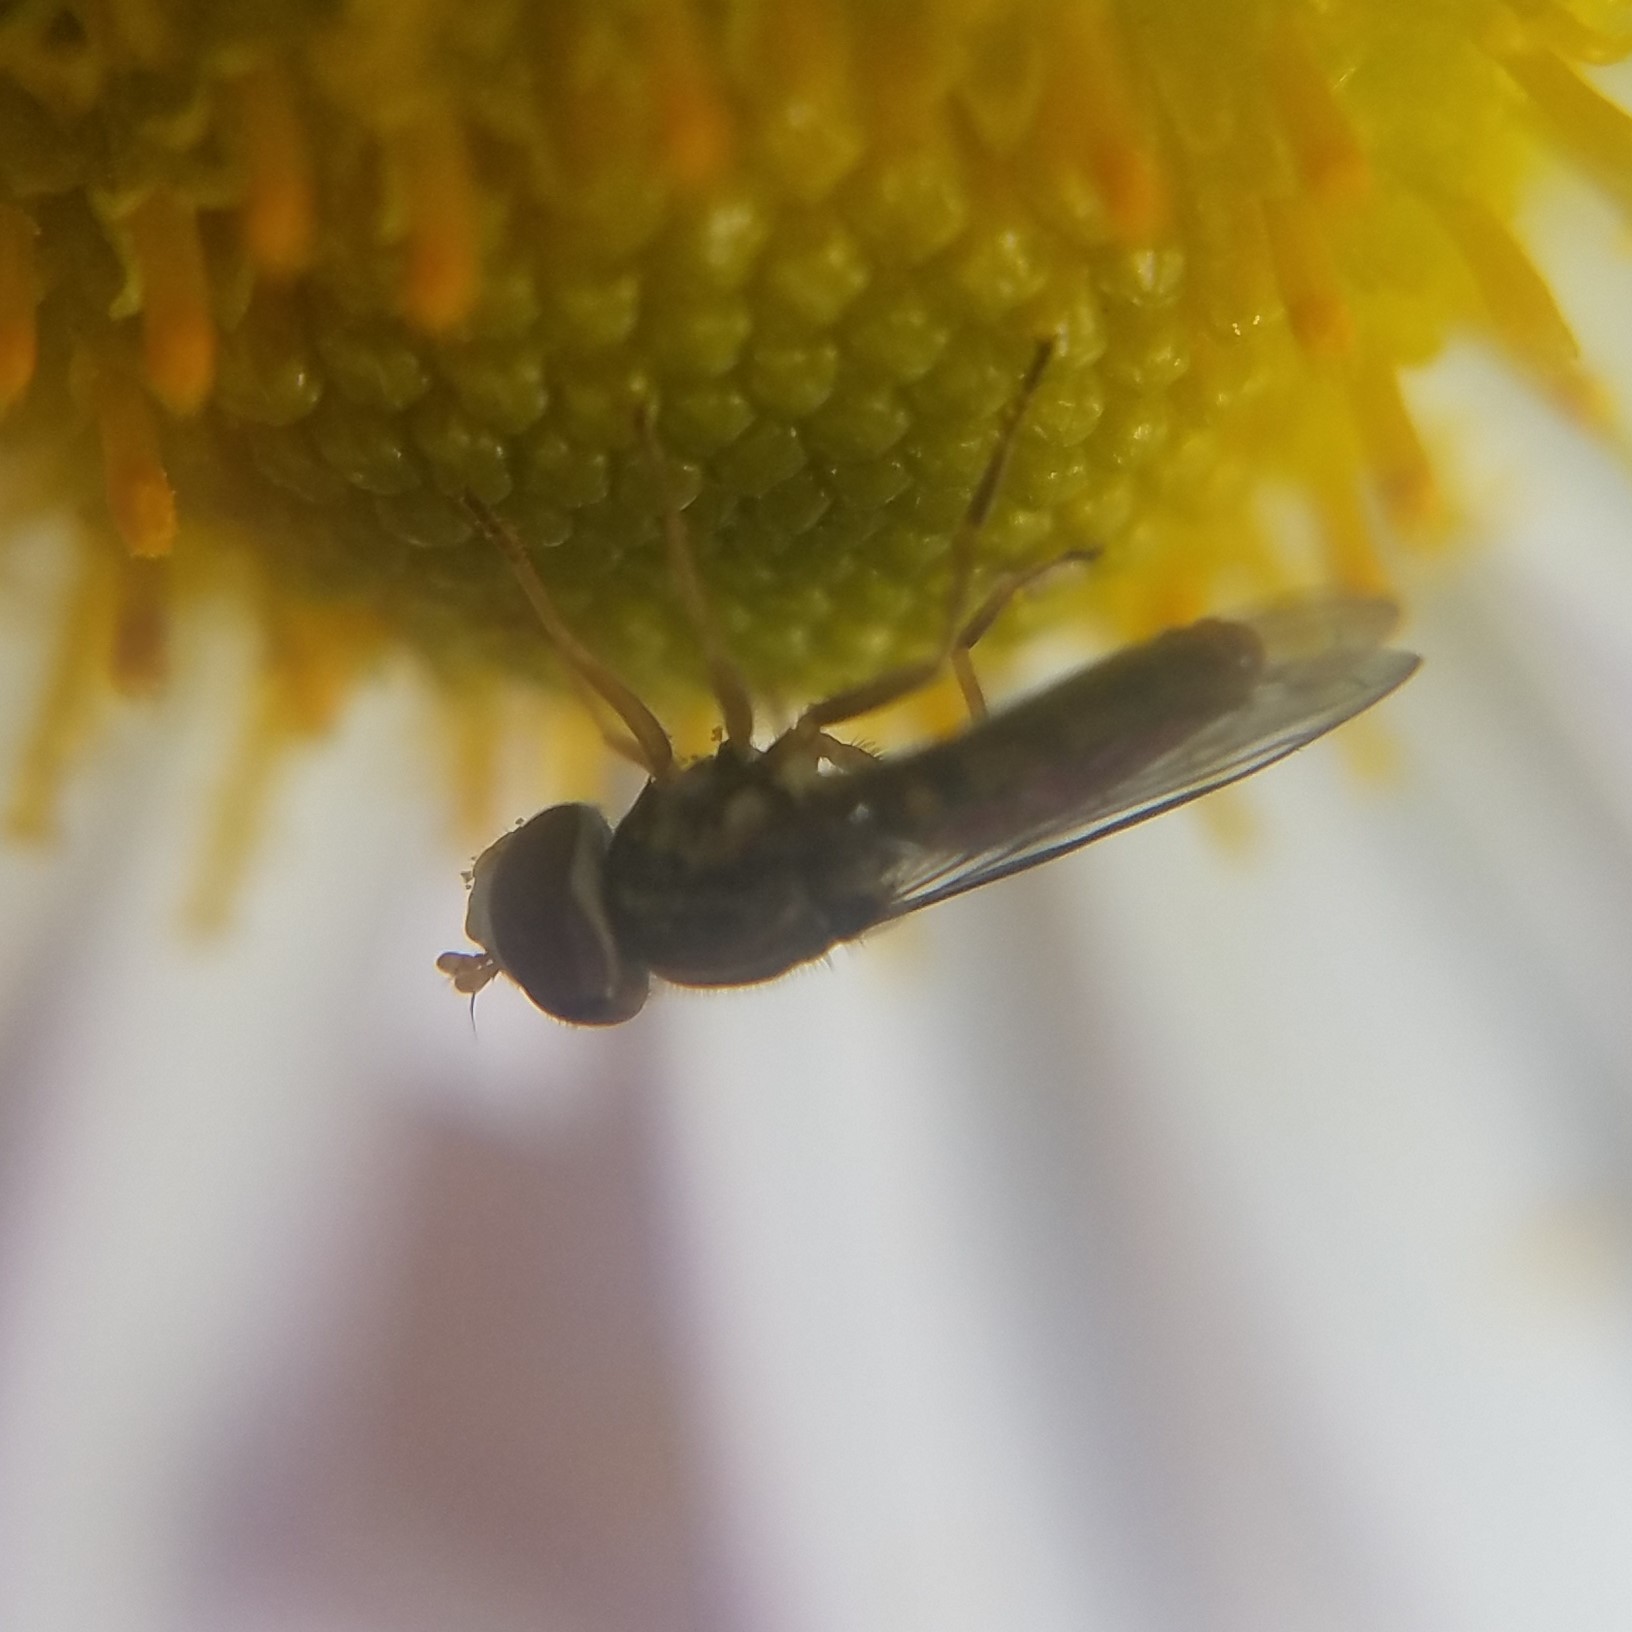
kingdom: Animalia
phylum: Arthropoda
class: Insecta
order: Diptera
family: Syrphidae
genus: Toxomerus
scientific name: Toxomerus marginatus
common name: Syrphid fly
